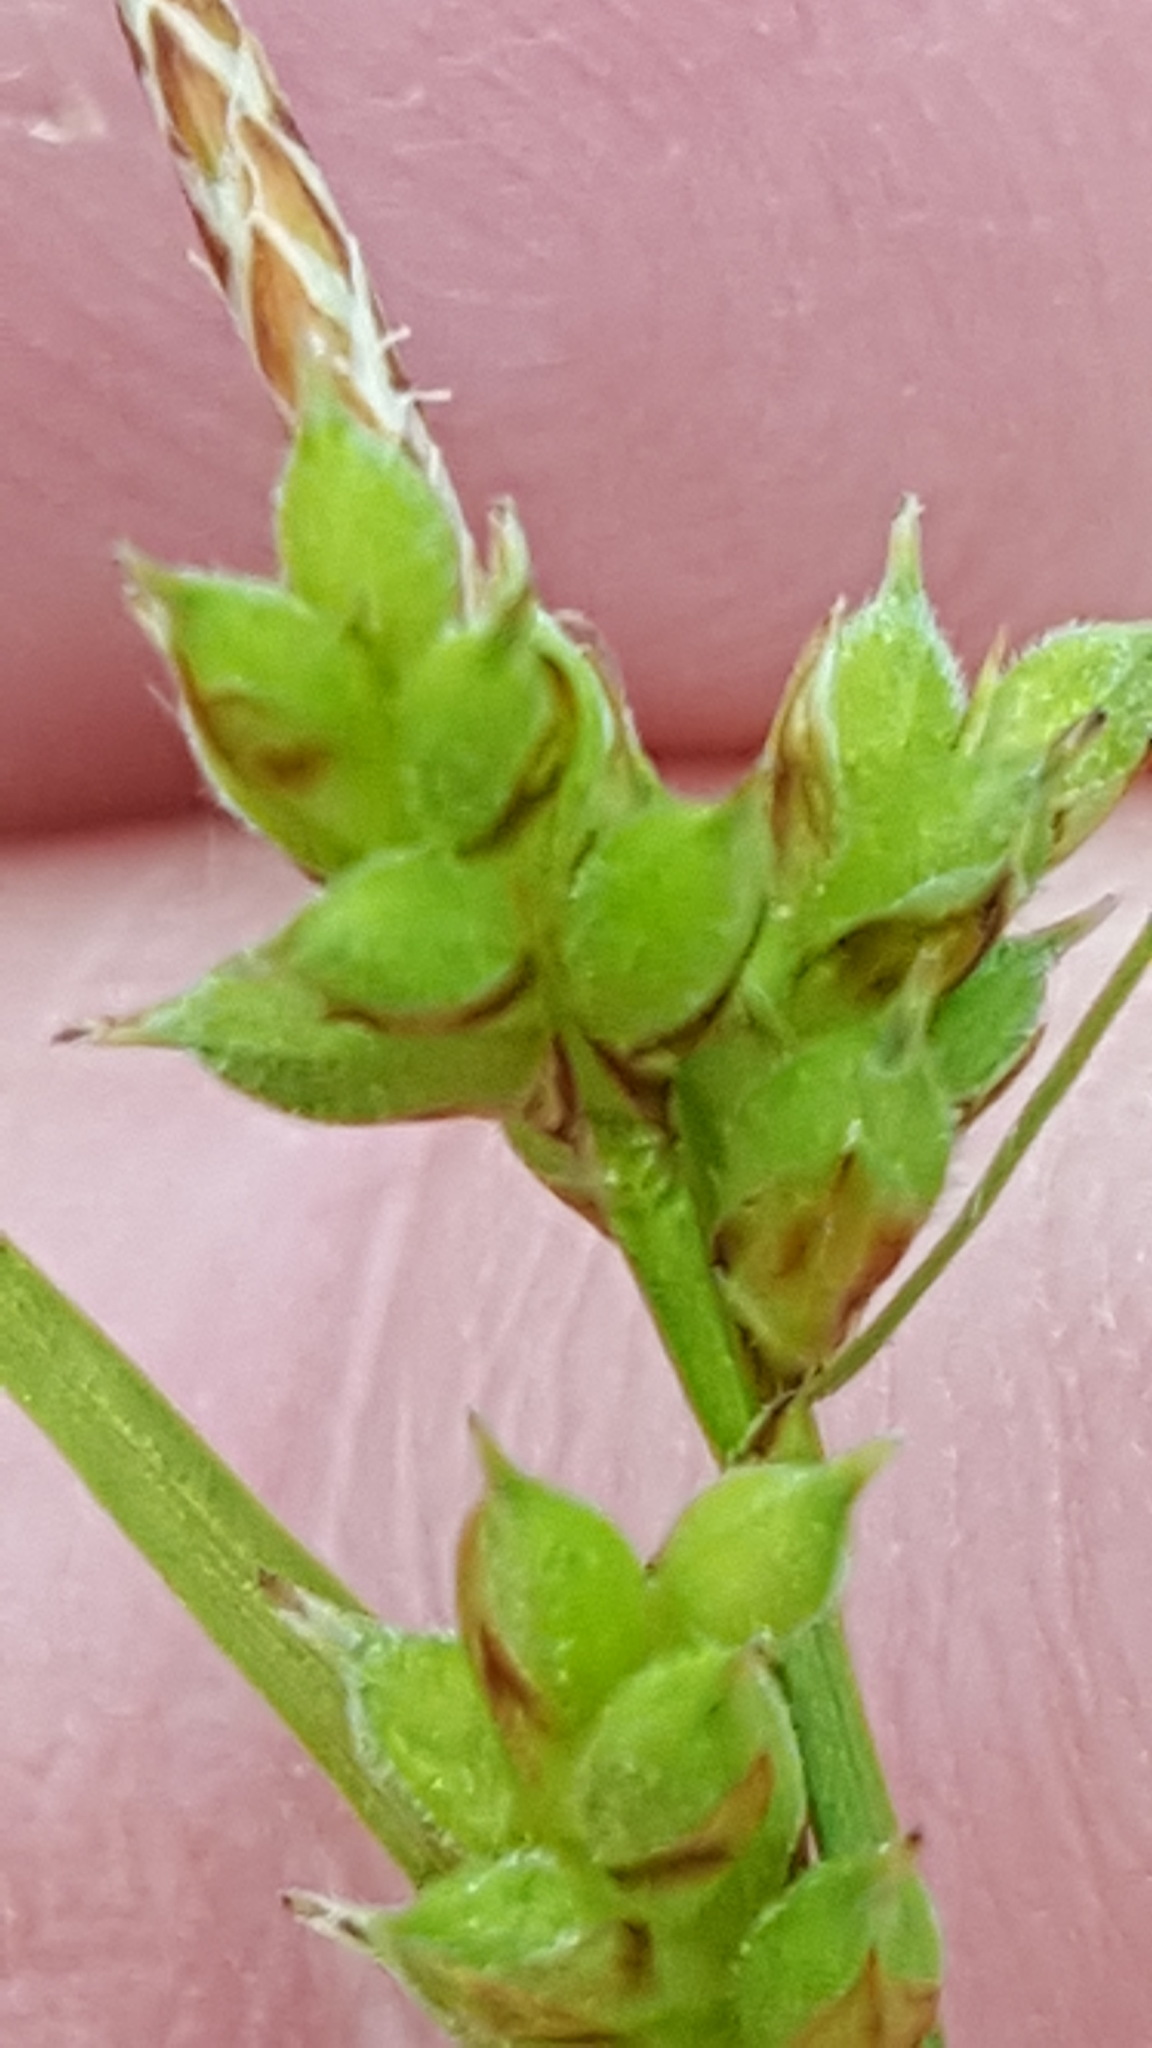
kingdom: Plantae
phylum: Tracheophyta
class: Liliopsida
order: Poales
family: Cyperaceae
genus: Carex
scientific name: Carex peckii
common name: Peck's oak sedge
